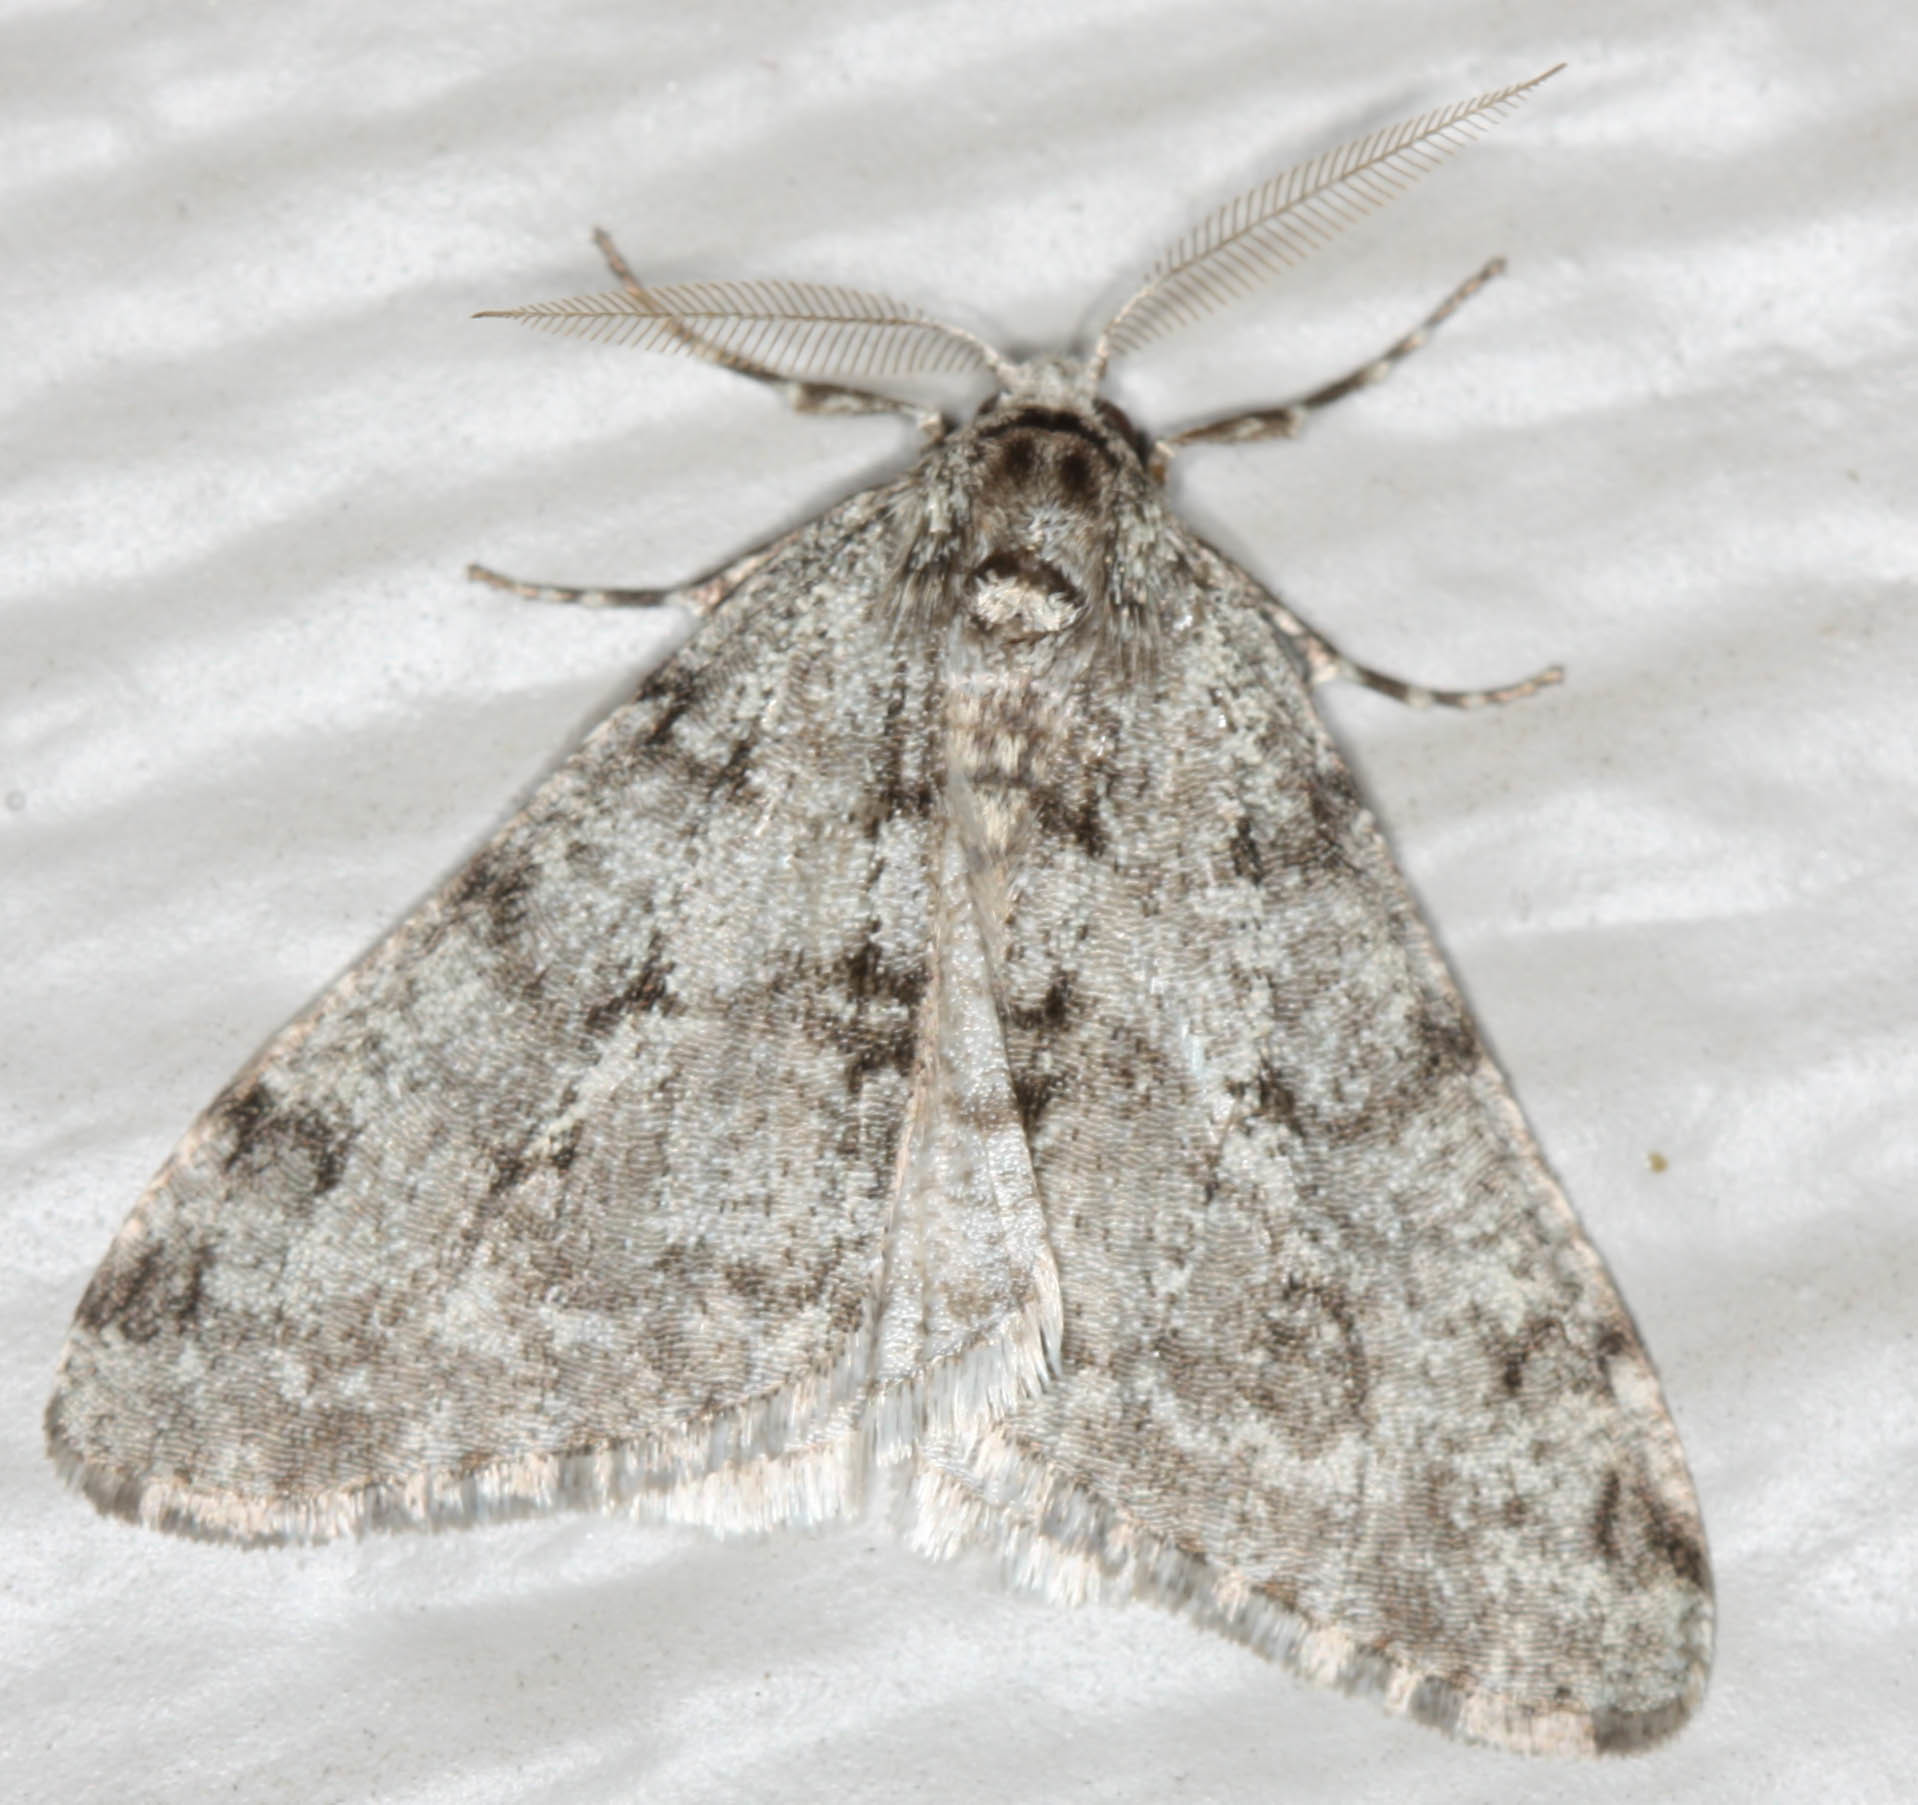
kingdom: Animalia
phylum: Arthropoda
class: Insecta
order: Lepidoptera
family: Geometridae
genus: Phigalia
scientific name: Phigalia strigataria
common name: Small phigalia
